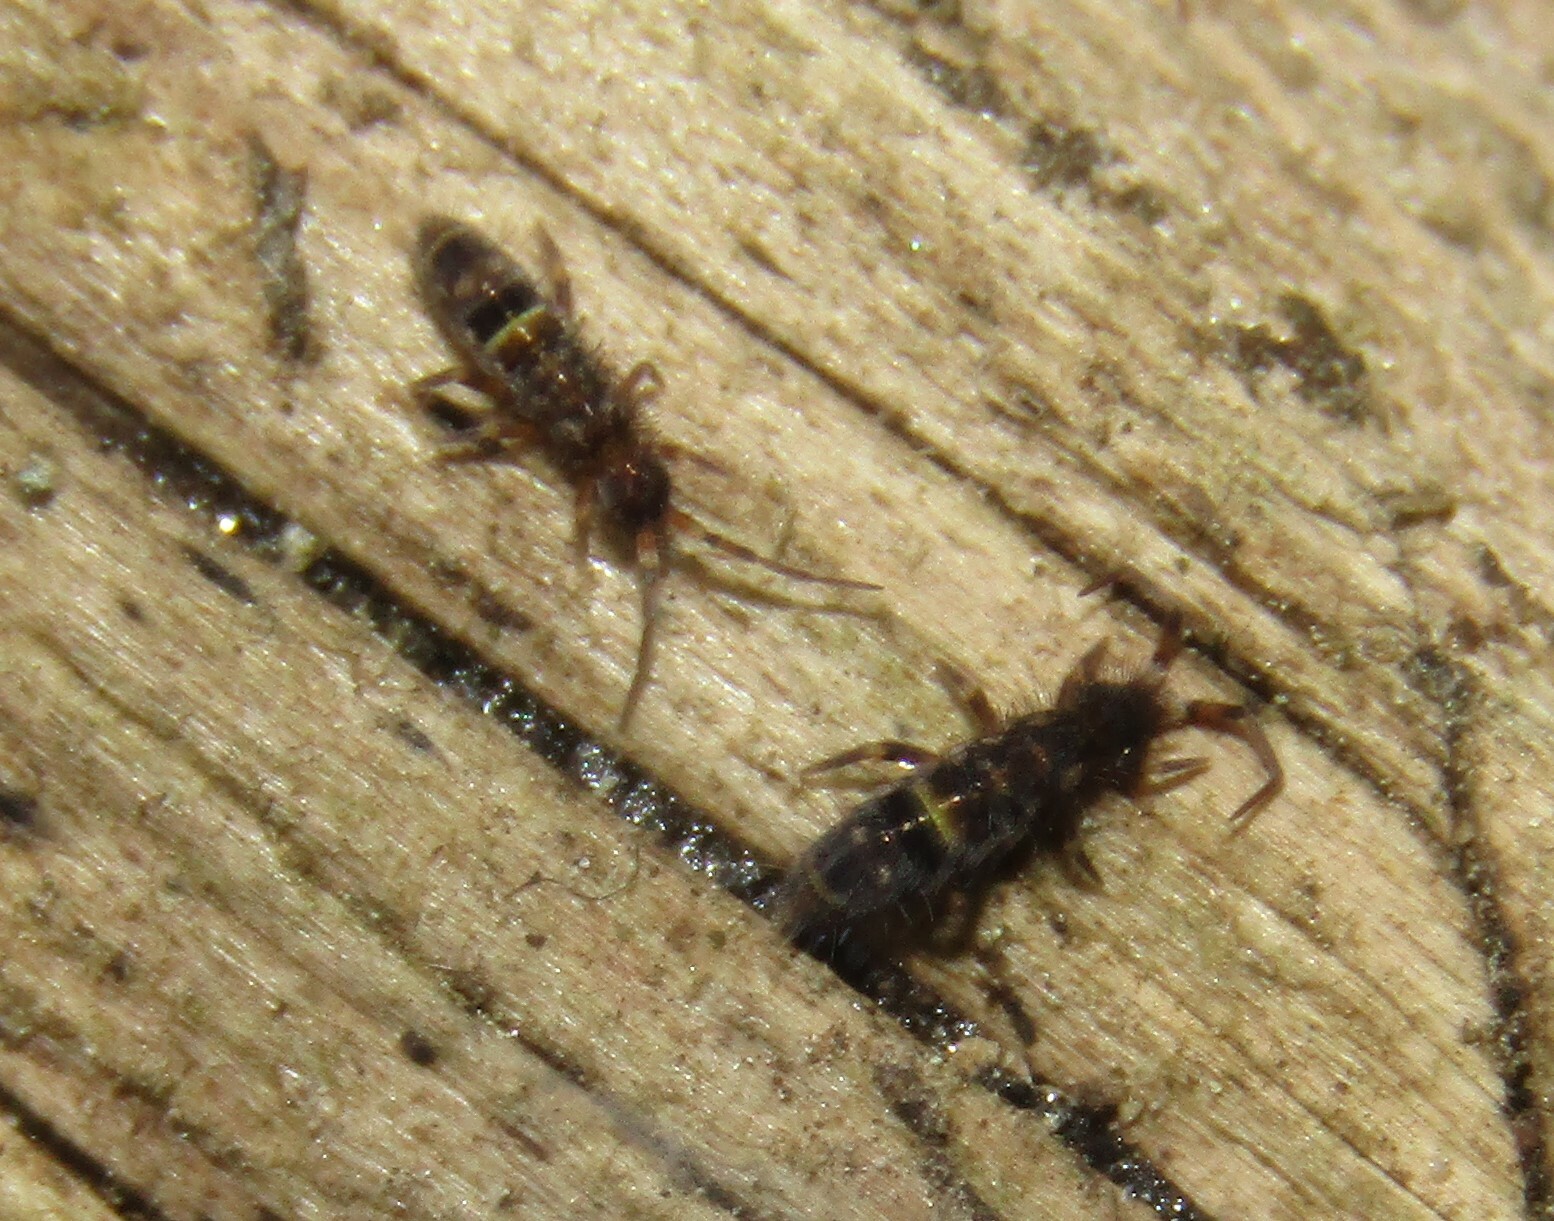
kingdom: Animalia
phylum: Arthropoda
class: Collembola
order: Entomobryomorpha
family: Orchesellidae
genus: Orchesella
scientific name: Orchesella cincta
